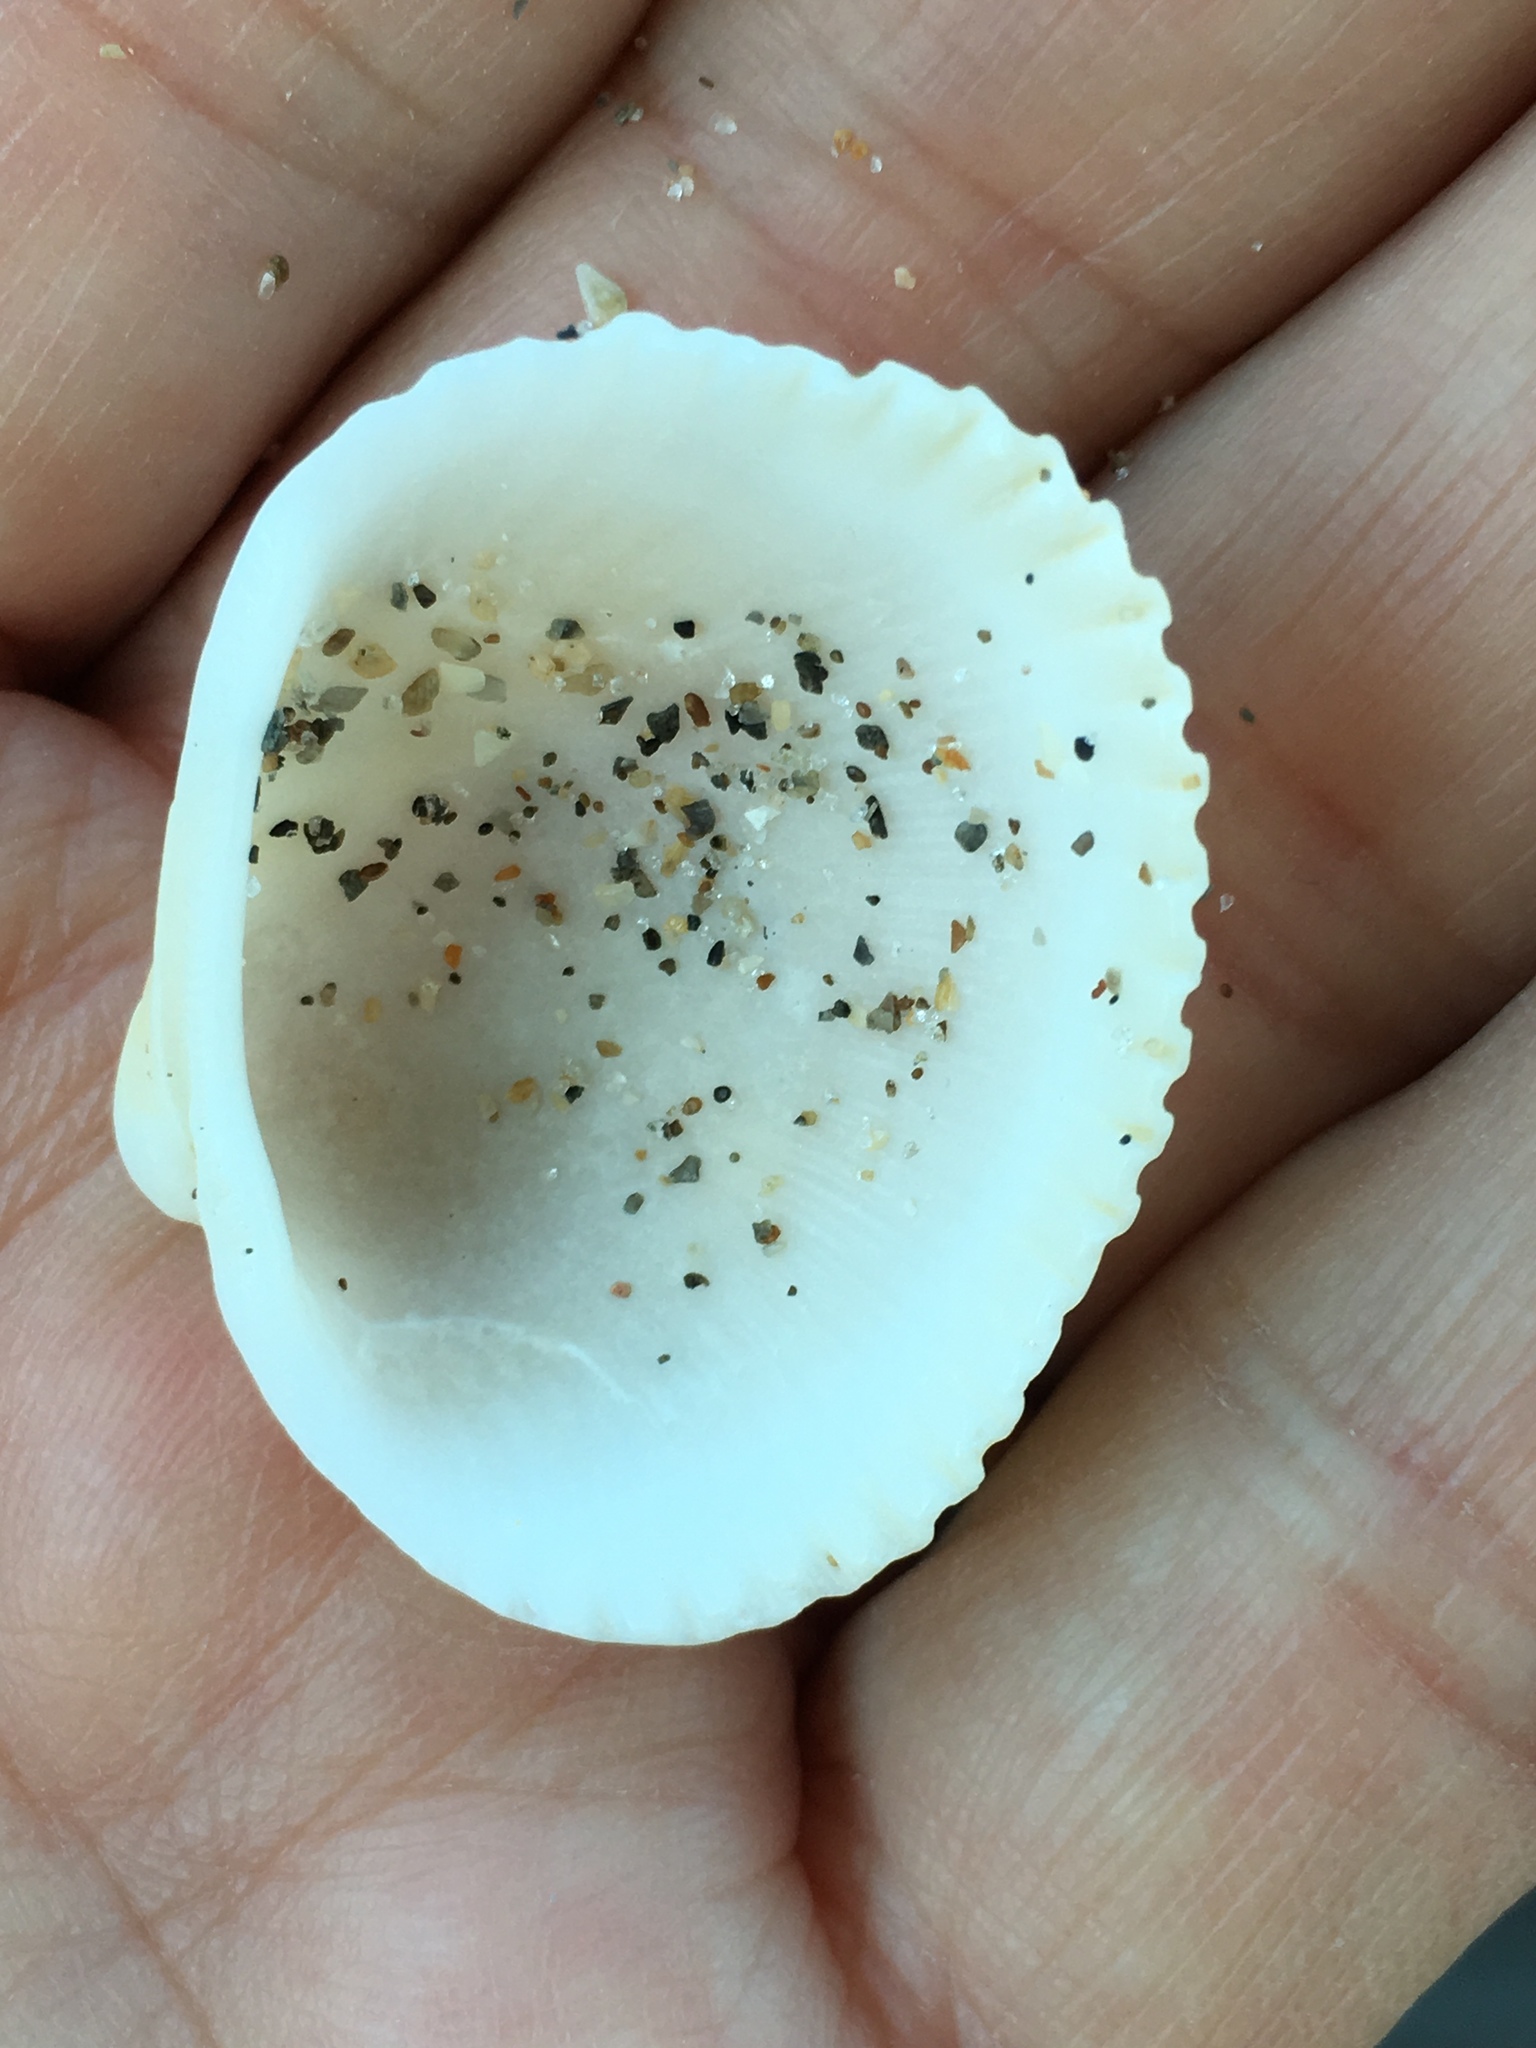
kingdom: Animalia
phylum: Mollusca
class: Bivalvia
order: Arcida
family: Arcidae
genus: Lunarca
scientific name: Lunarca ovalis
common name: Blood ark
